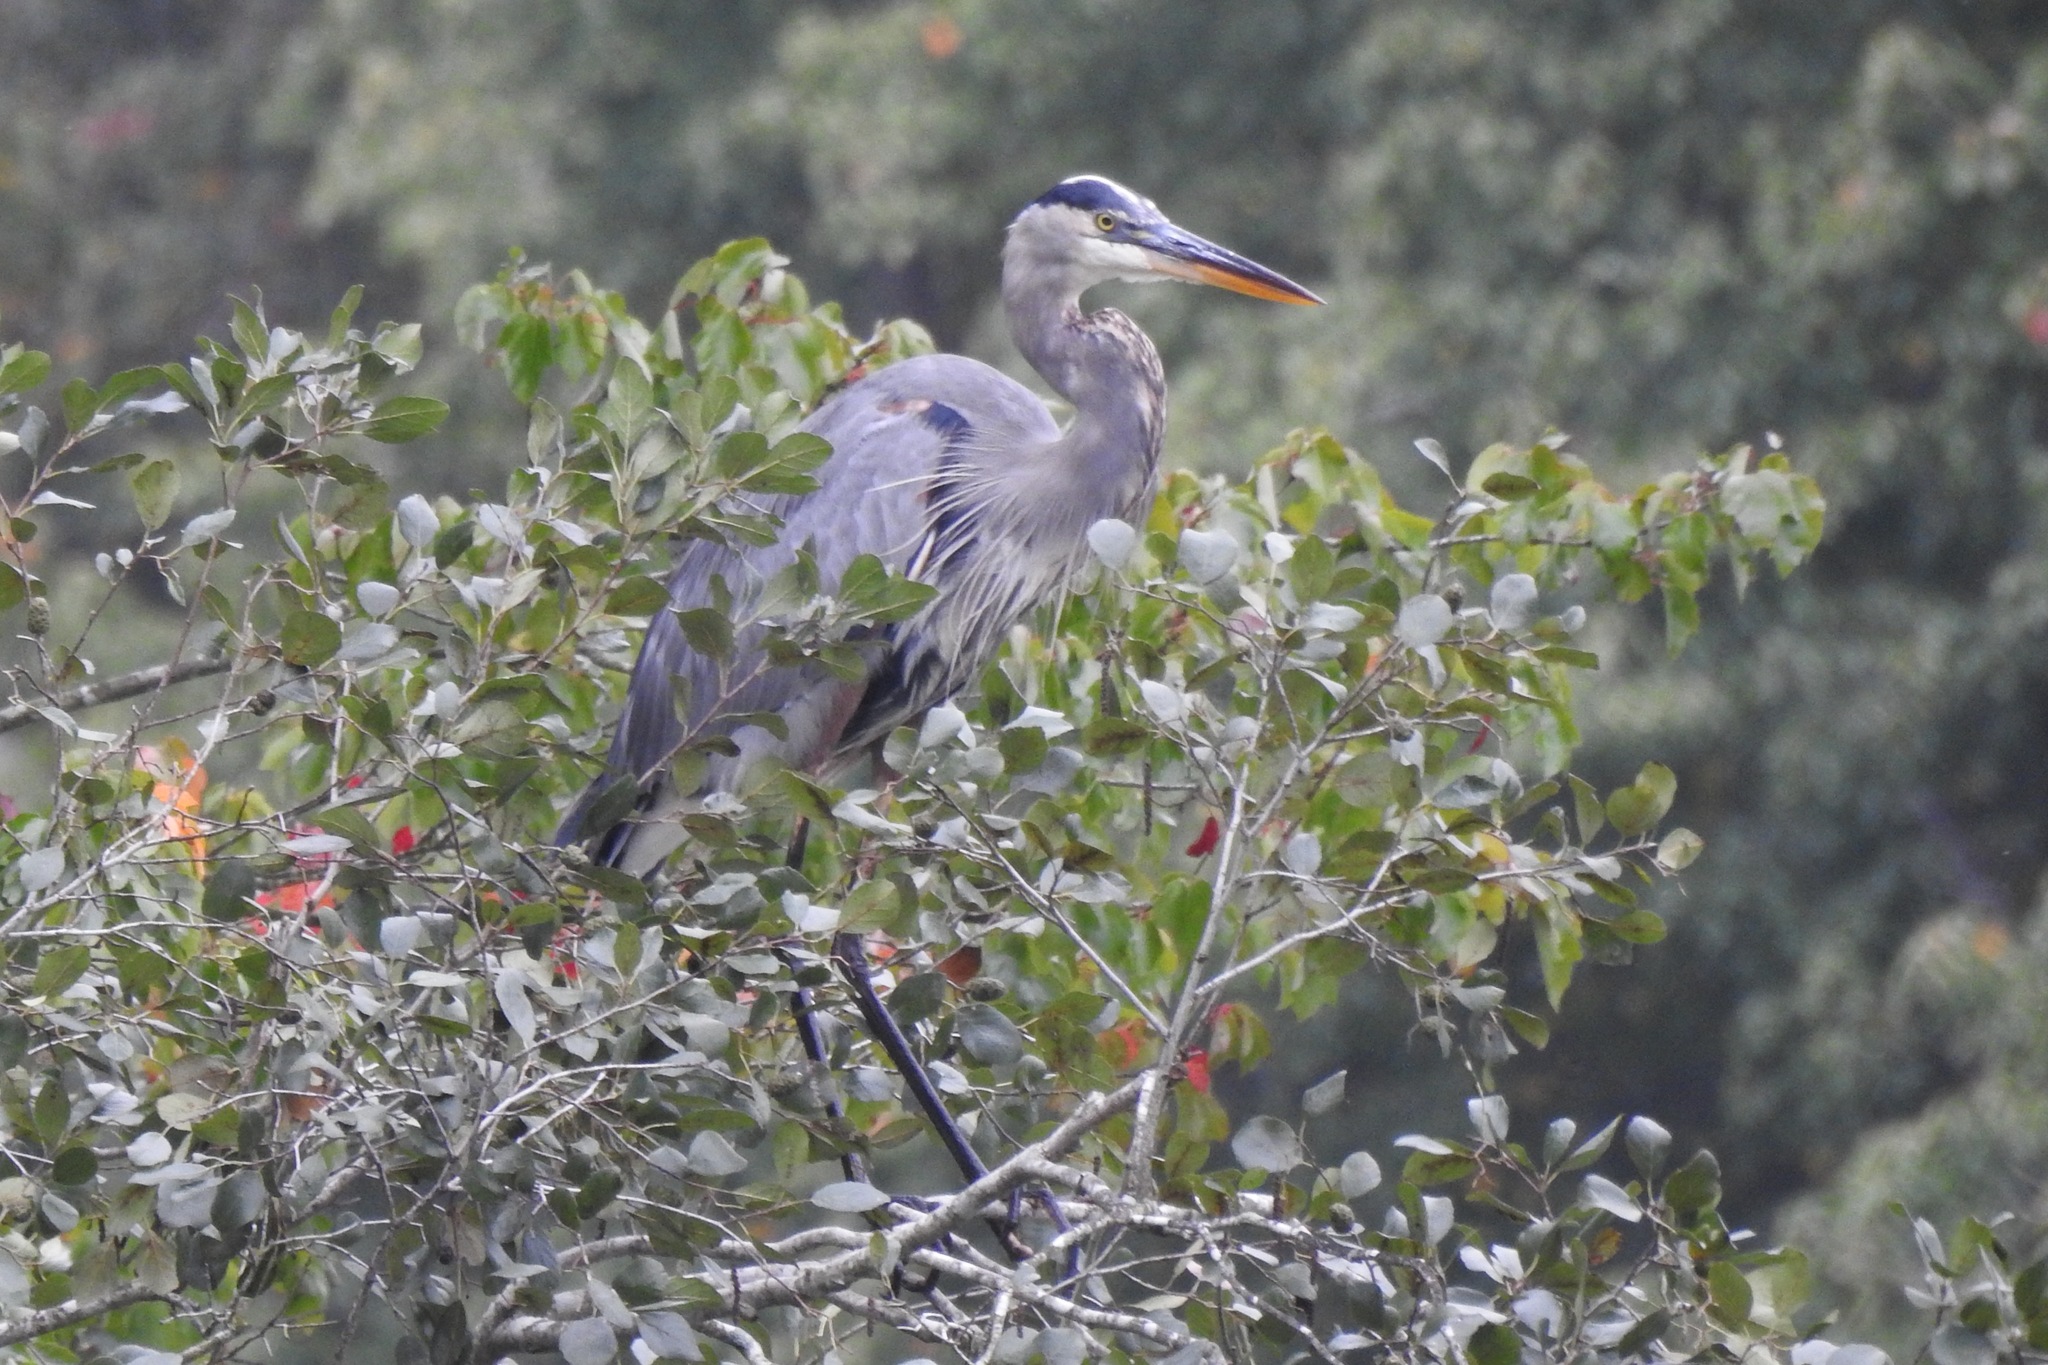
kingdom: Animalia
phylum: Chordata
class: Aves
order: Pelecaniformes
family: Ardeidae
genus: Ardea
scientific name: Ardea herodias
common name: Great blue heron
